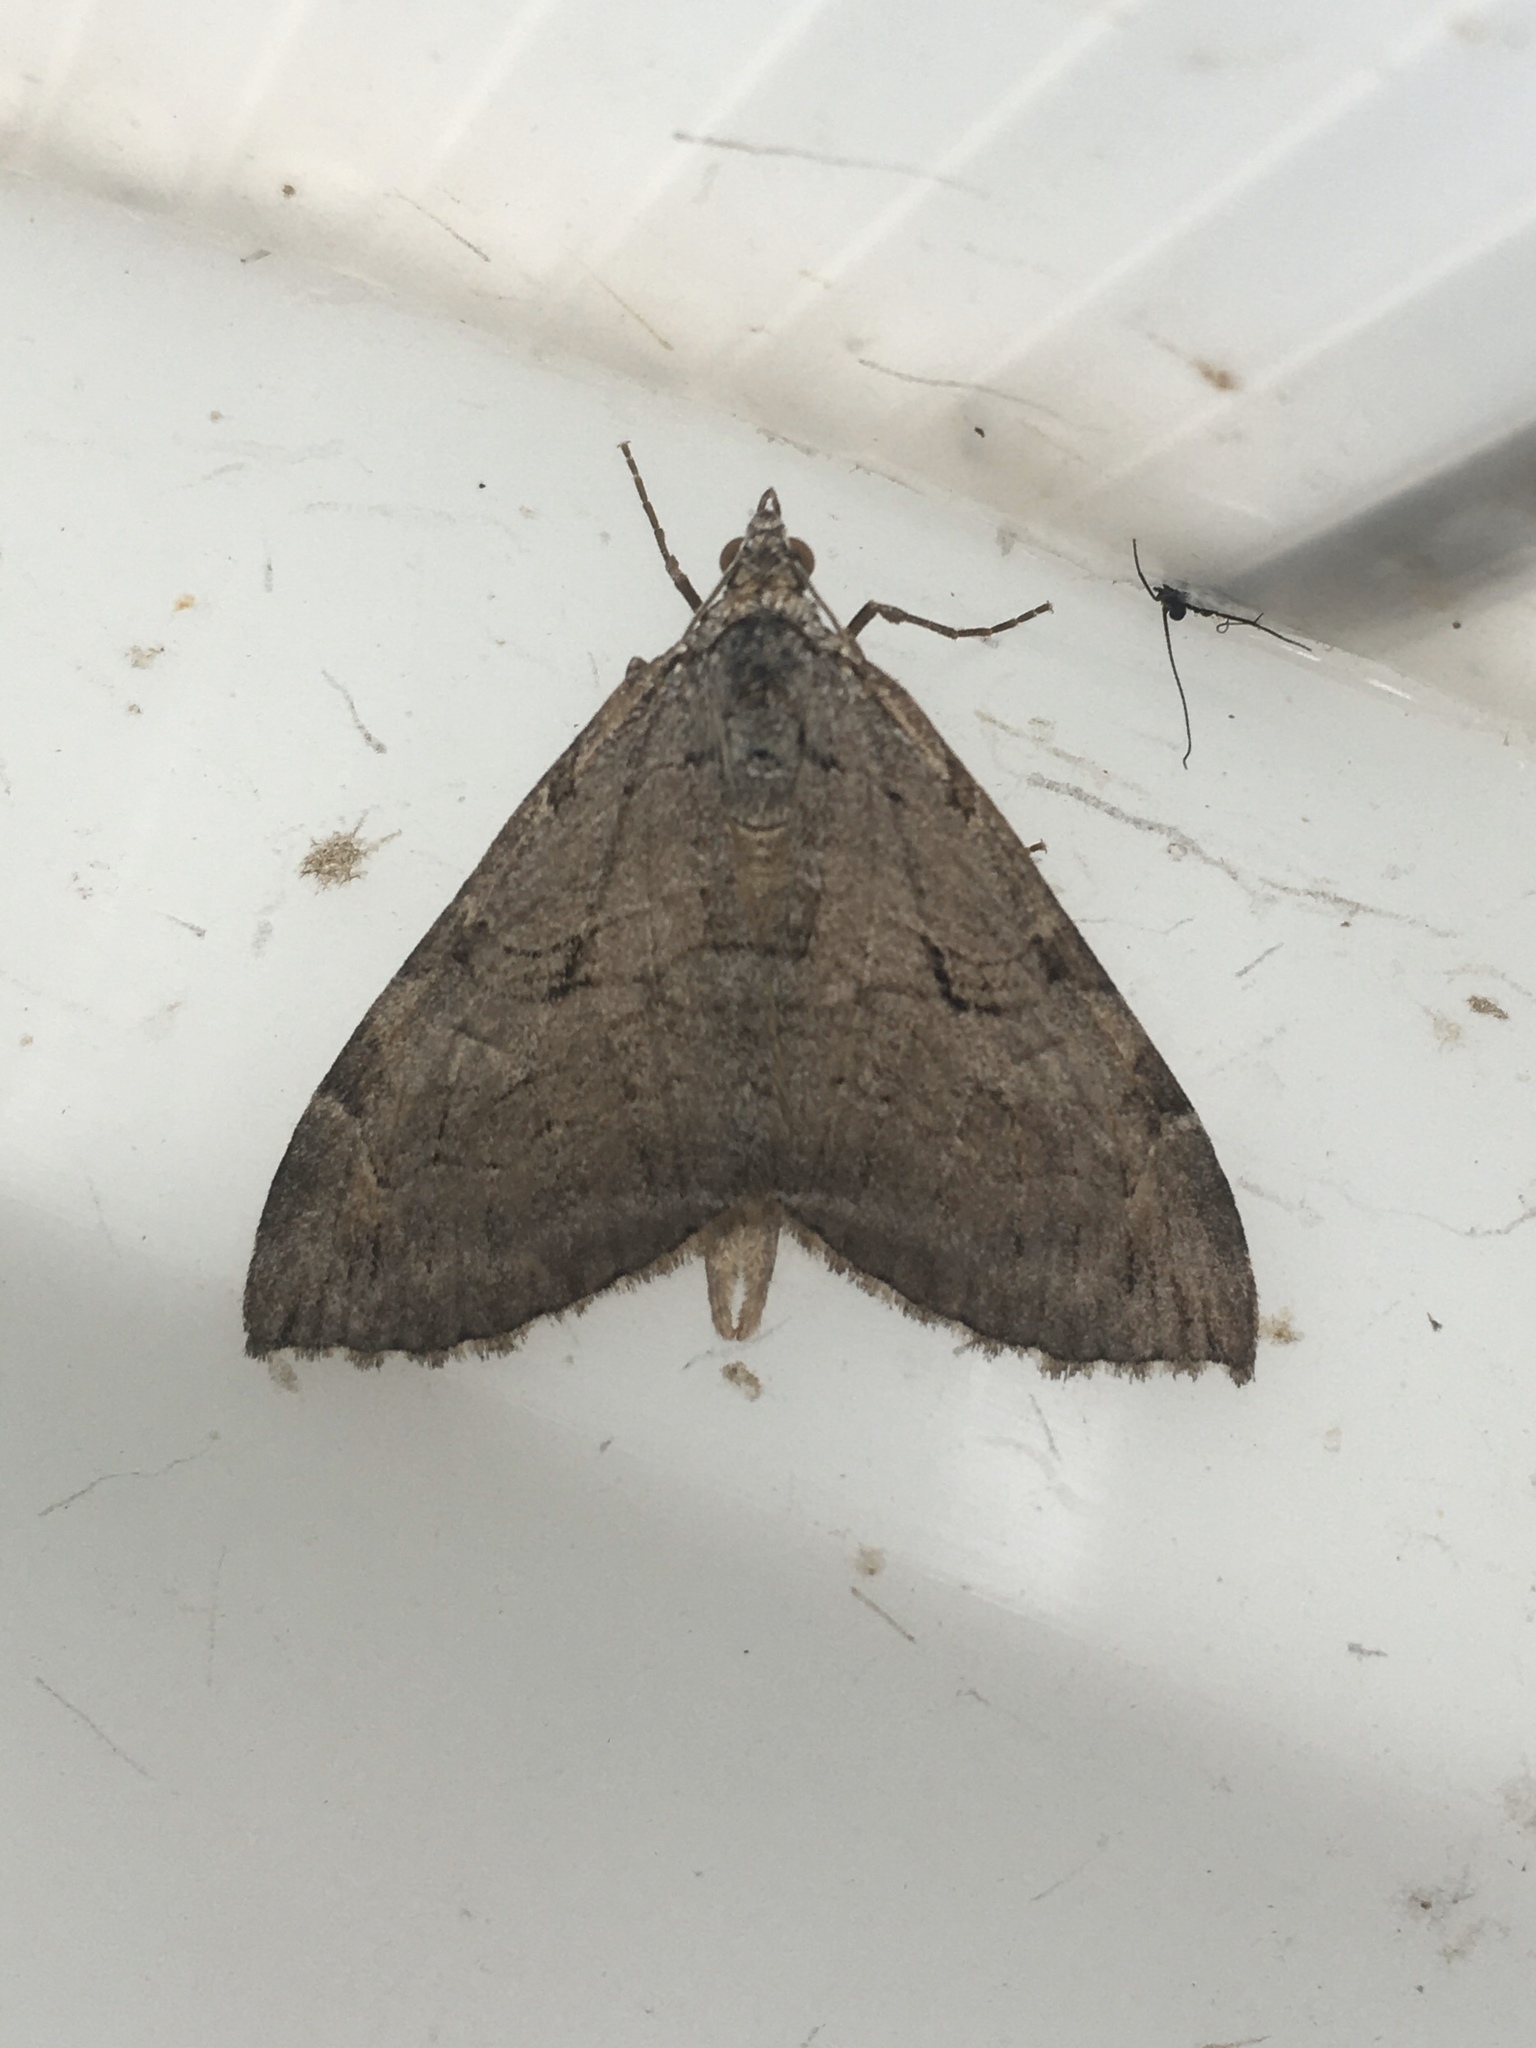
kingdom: Animalia
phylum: Arthropoda
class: Insecta
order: Lepidoptera
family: Geometridae
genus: Aplocera
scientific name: Aplocera plagiata
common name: Treble-bar
